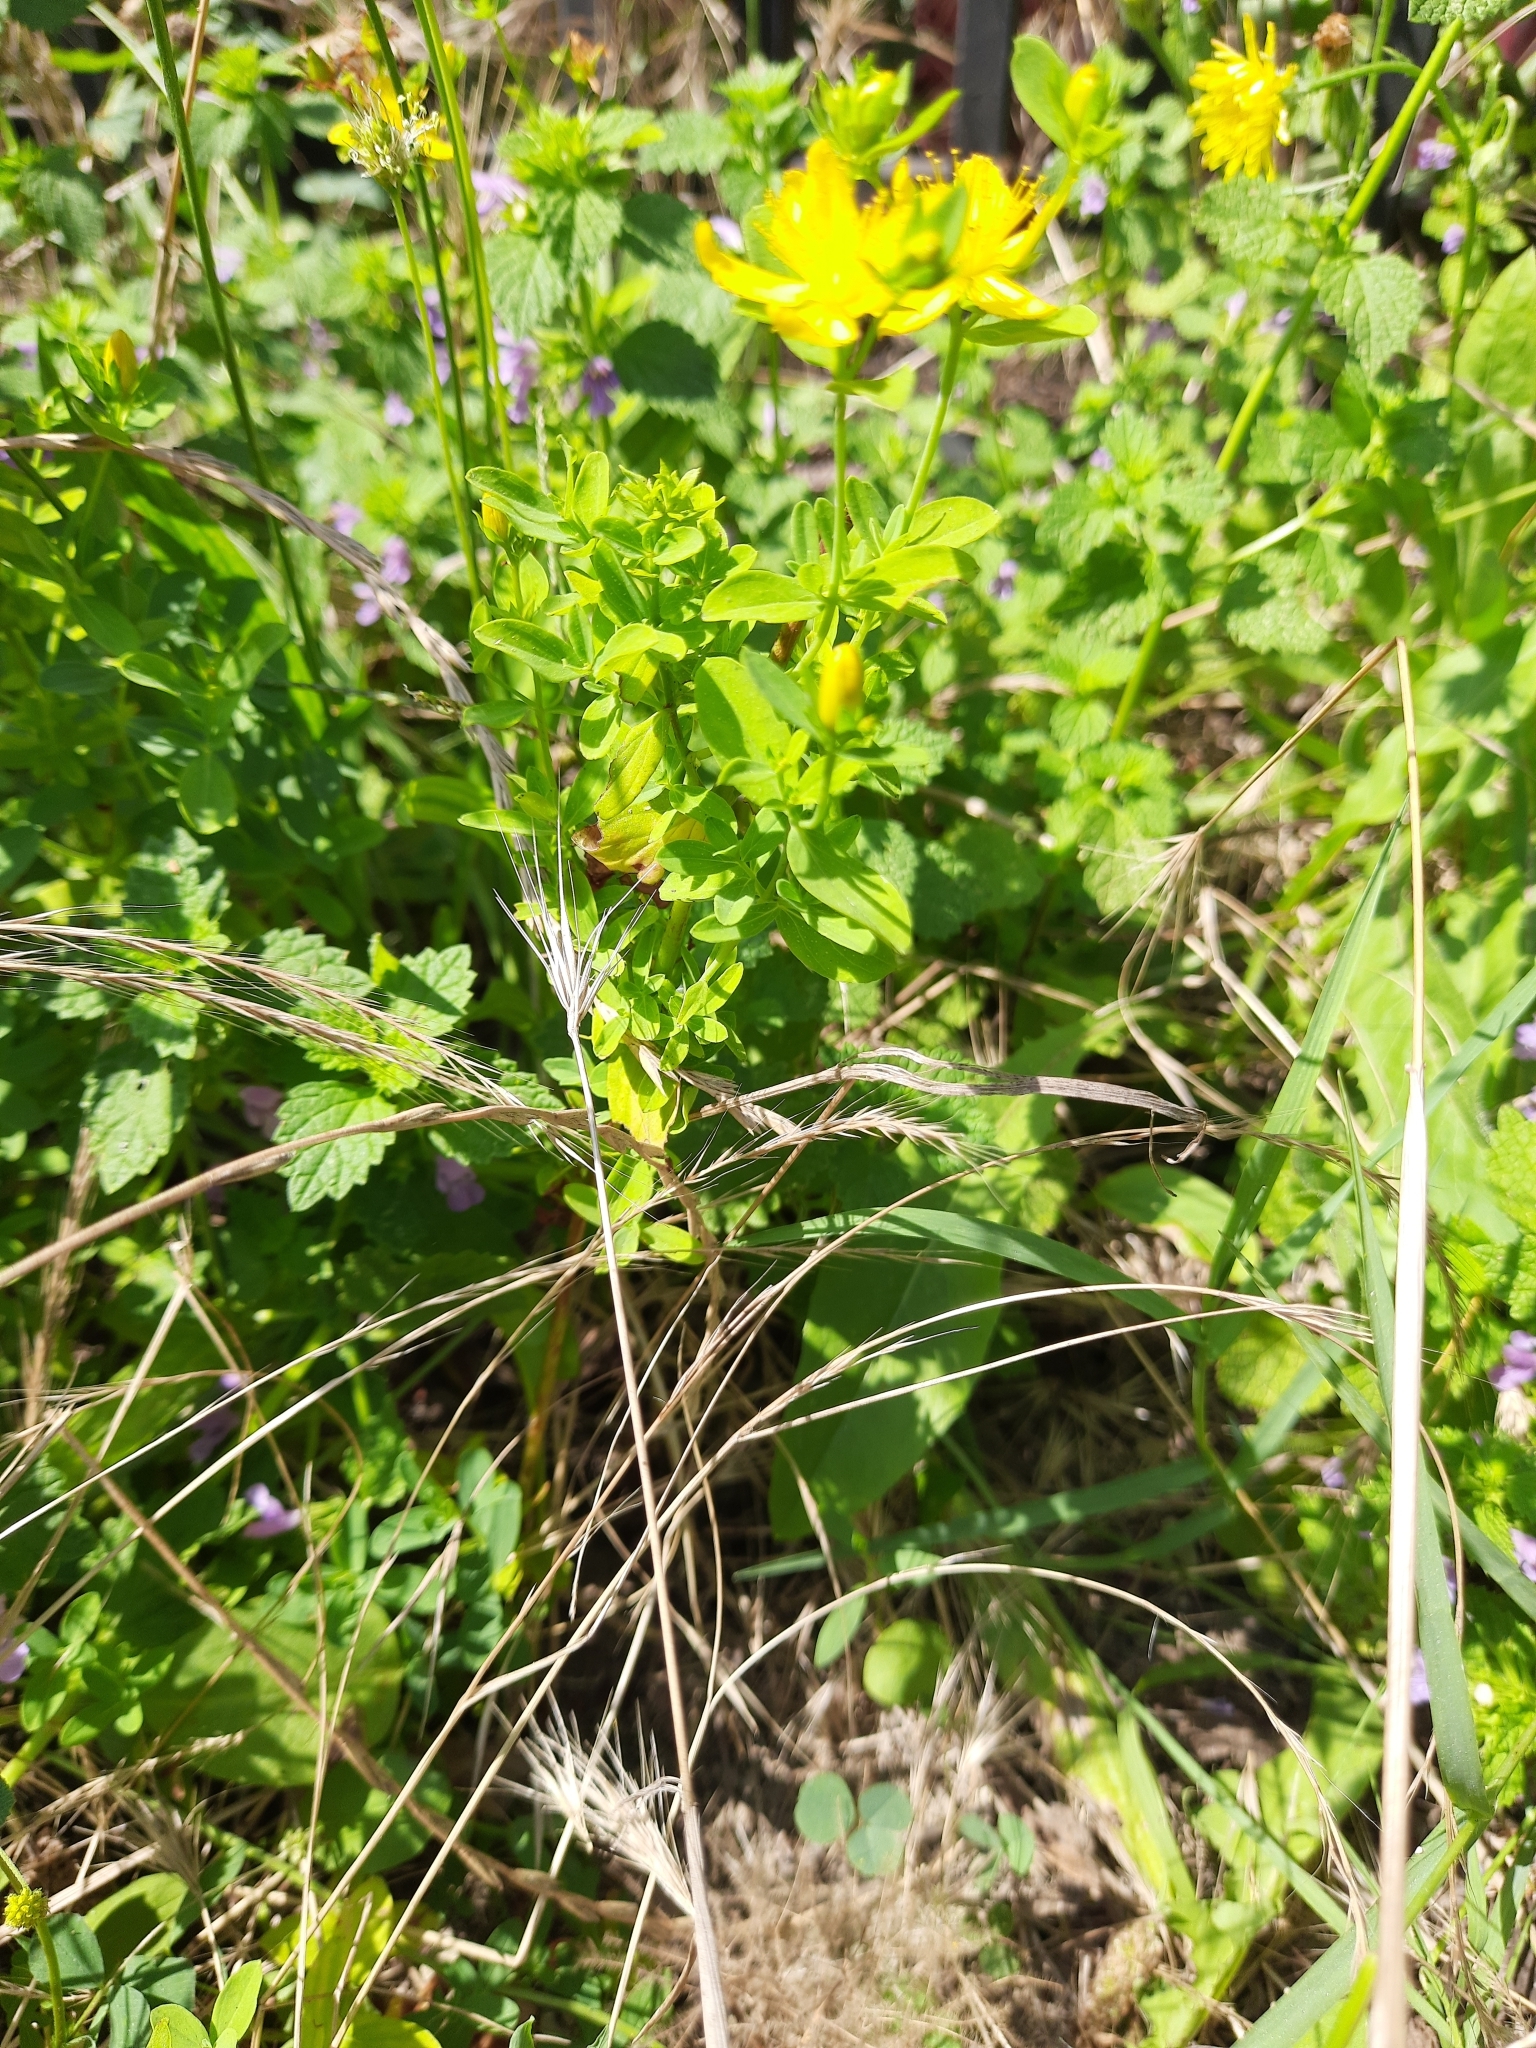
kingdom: Plantae
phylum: Tracheophyta
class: Magnoliopsida
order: Malpighiales
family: Hypericaceae
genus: Hypericum
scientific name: Hypericum perforatum
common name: Common st. johnswort
